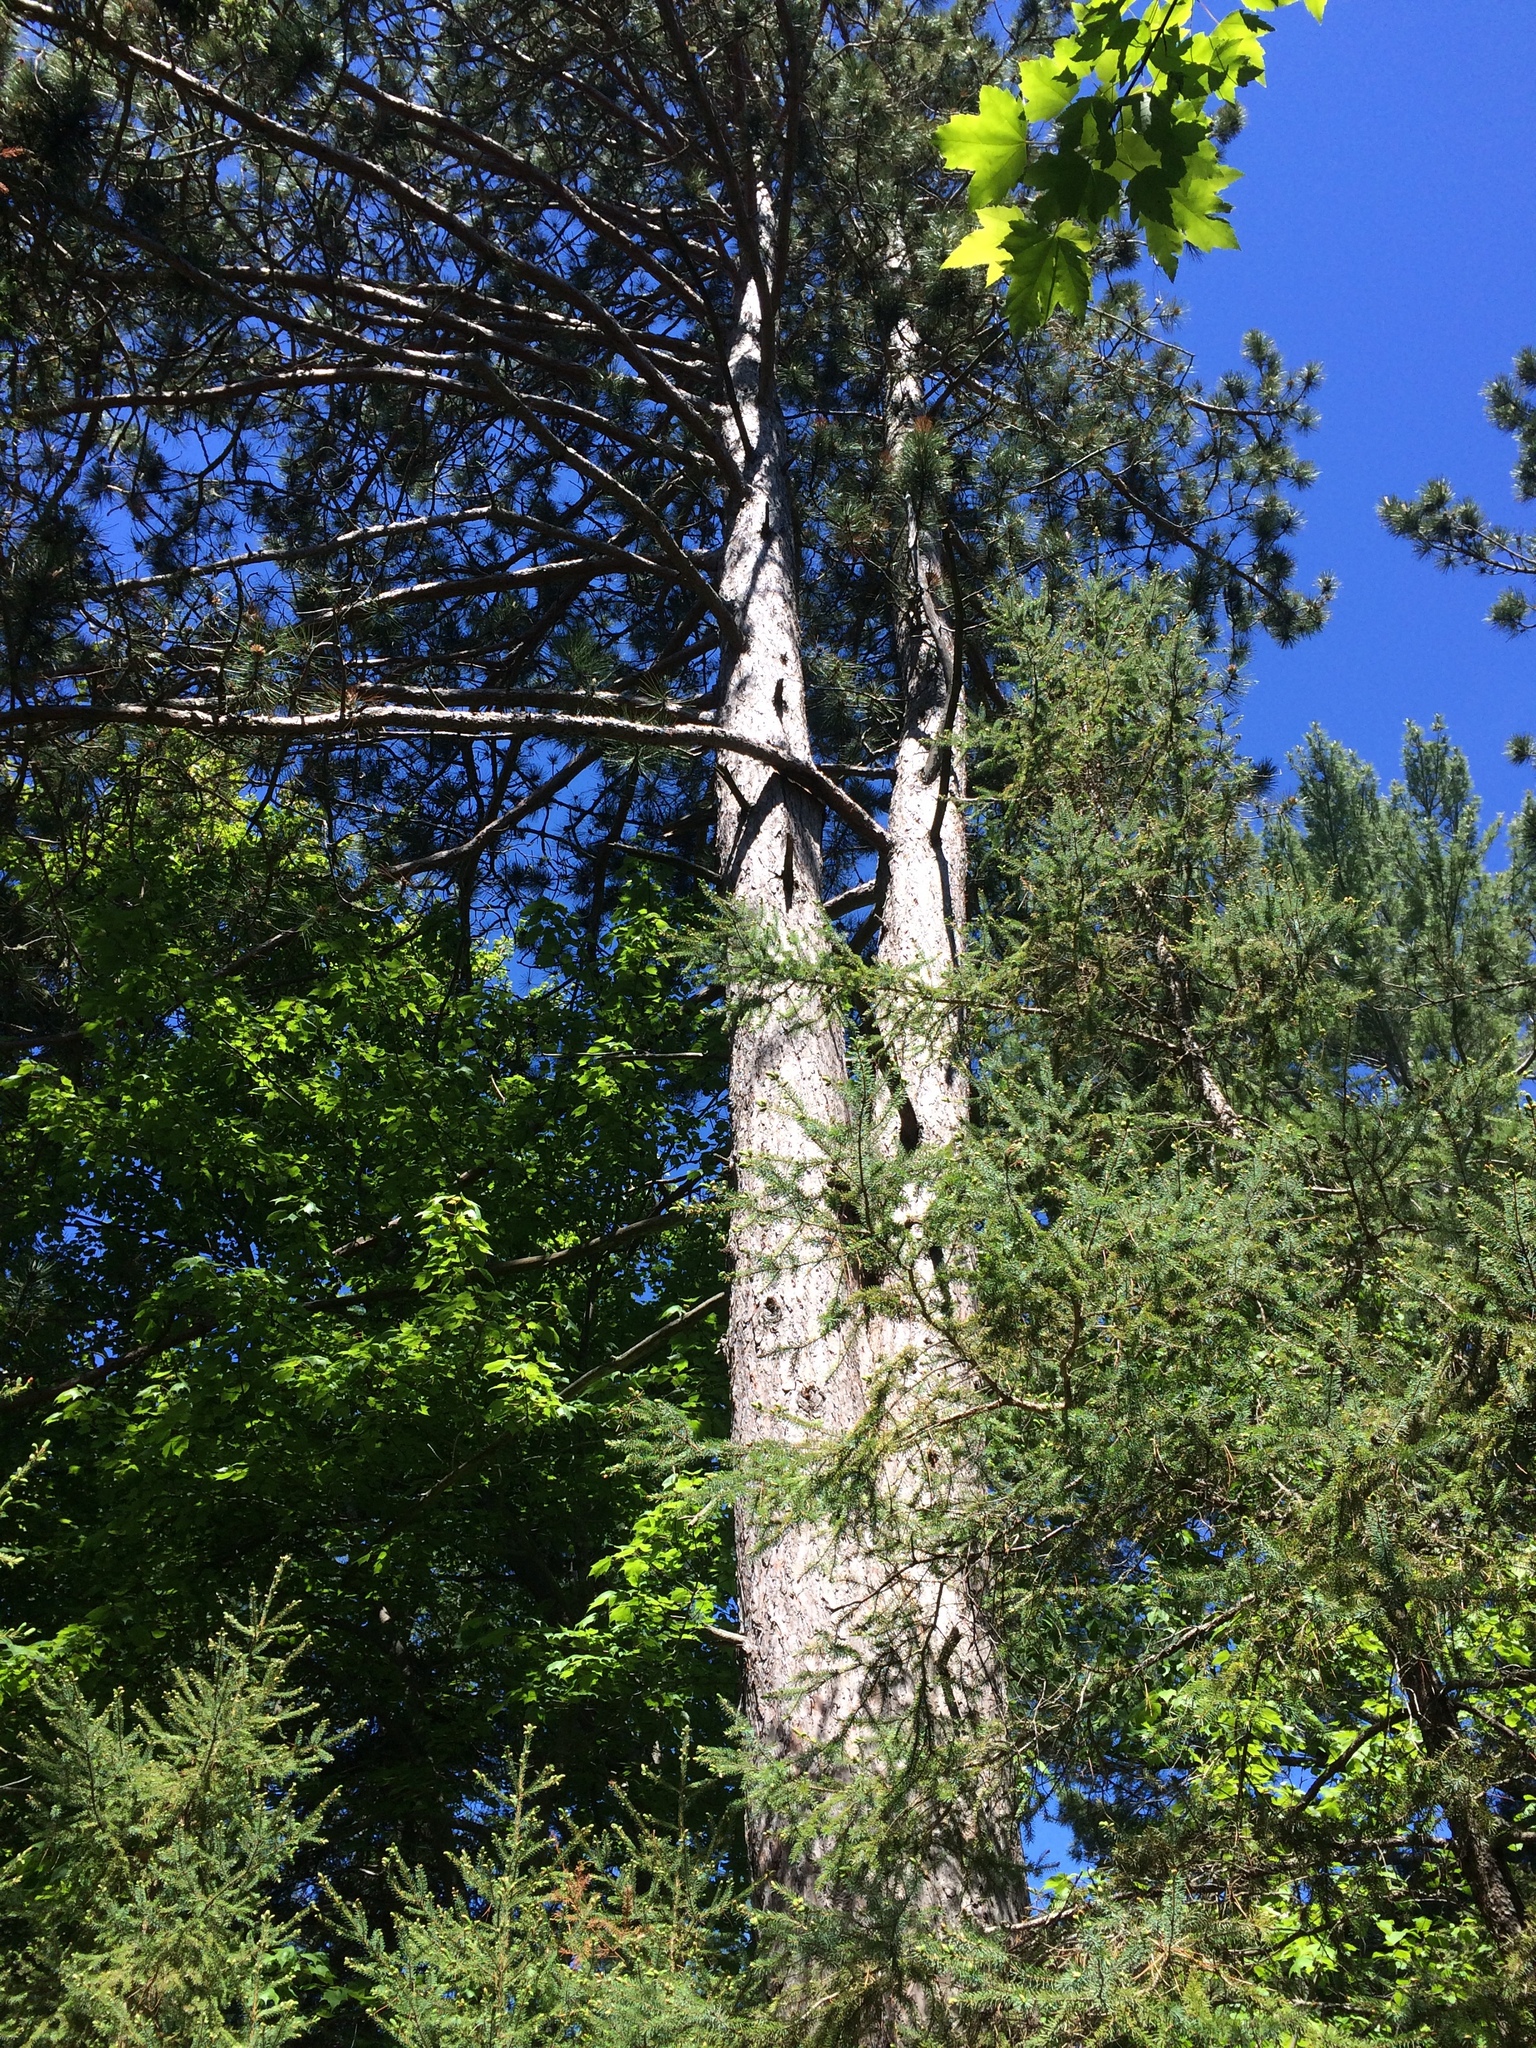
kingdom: Plantae
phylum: Tracheophyta
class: Pinopsida
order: Pinales
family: Pinaceae
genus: Pinus
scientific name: Pinus resinosa
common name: Norway pine
